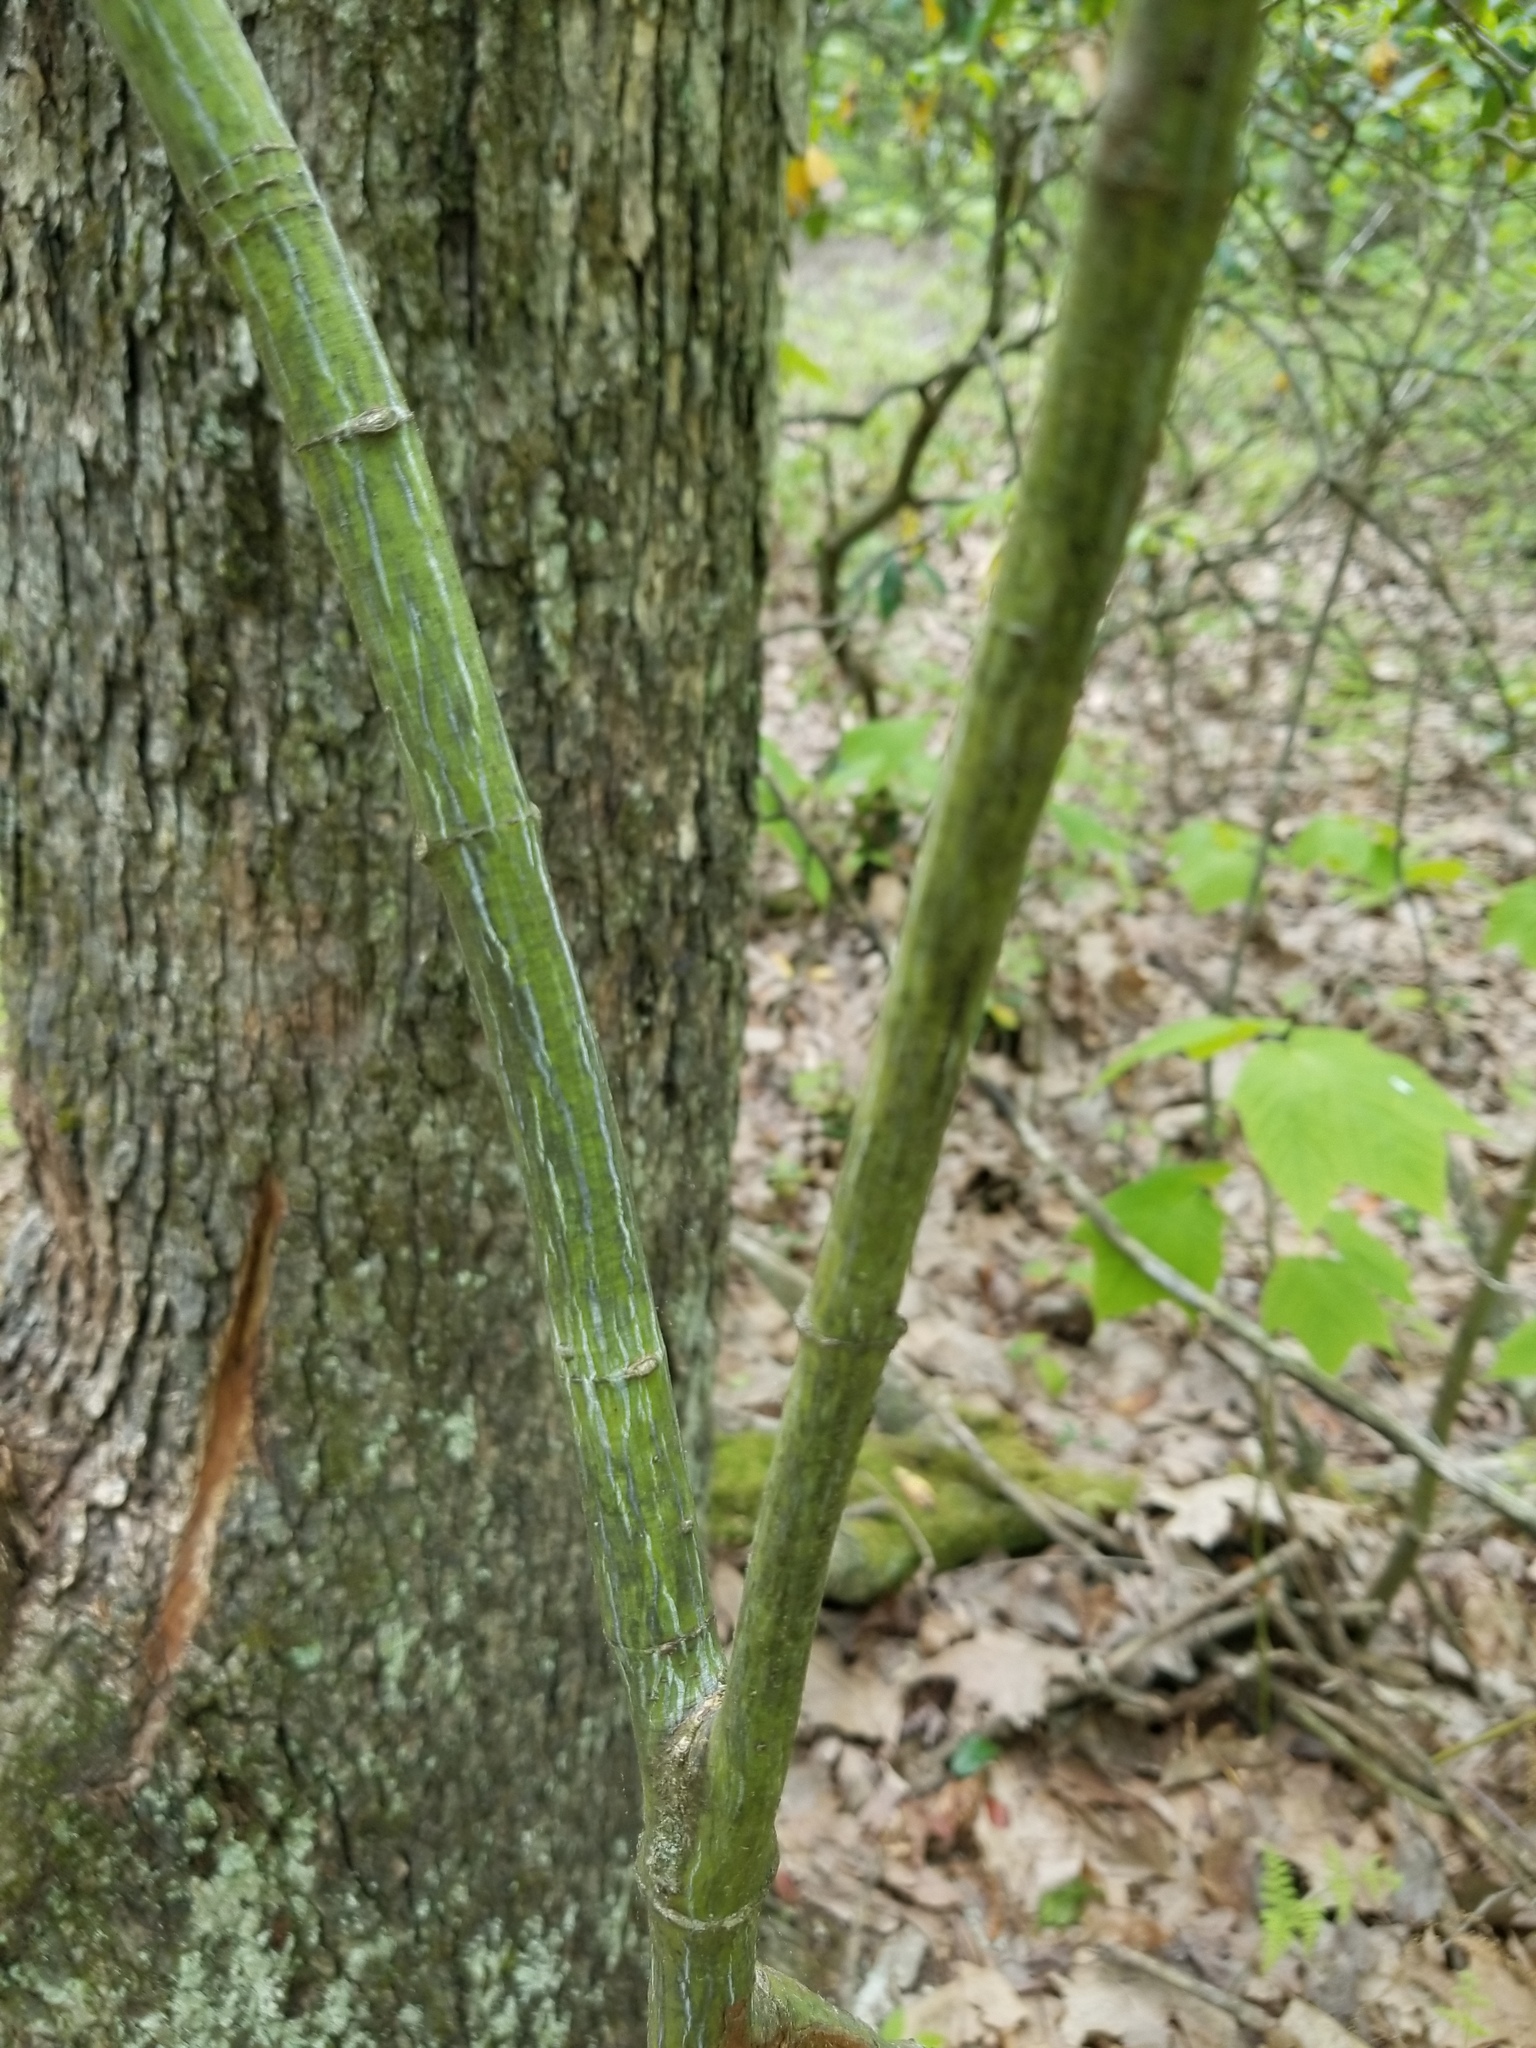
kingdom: Plantae
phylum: Tracheophyta
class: Magnoliopsida
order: Sapindales
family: Sapindaceae
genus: Acer
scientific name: Acer pensylvanicum
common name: Moosewood
